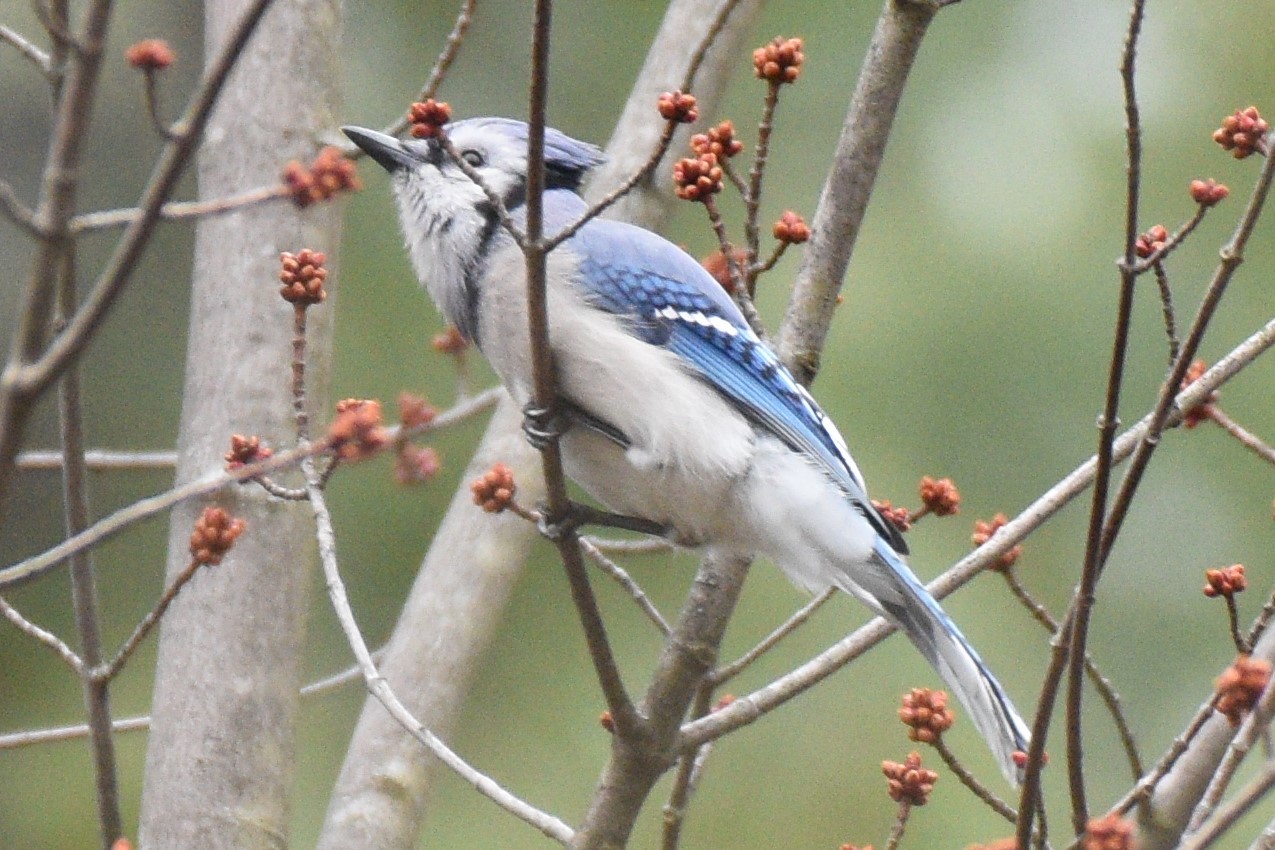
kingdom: Animalia
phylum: Chordata
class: Aves
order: Passeriformes
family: Corvidae
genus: Cyanocitta
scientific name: Cyanocitta cristata
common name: Blue jay
